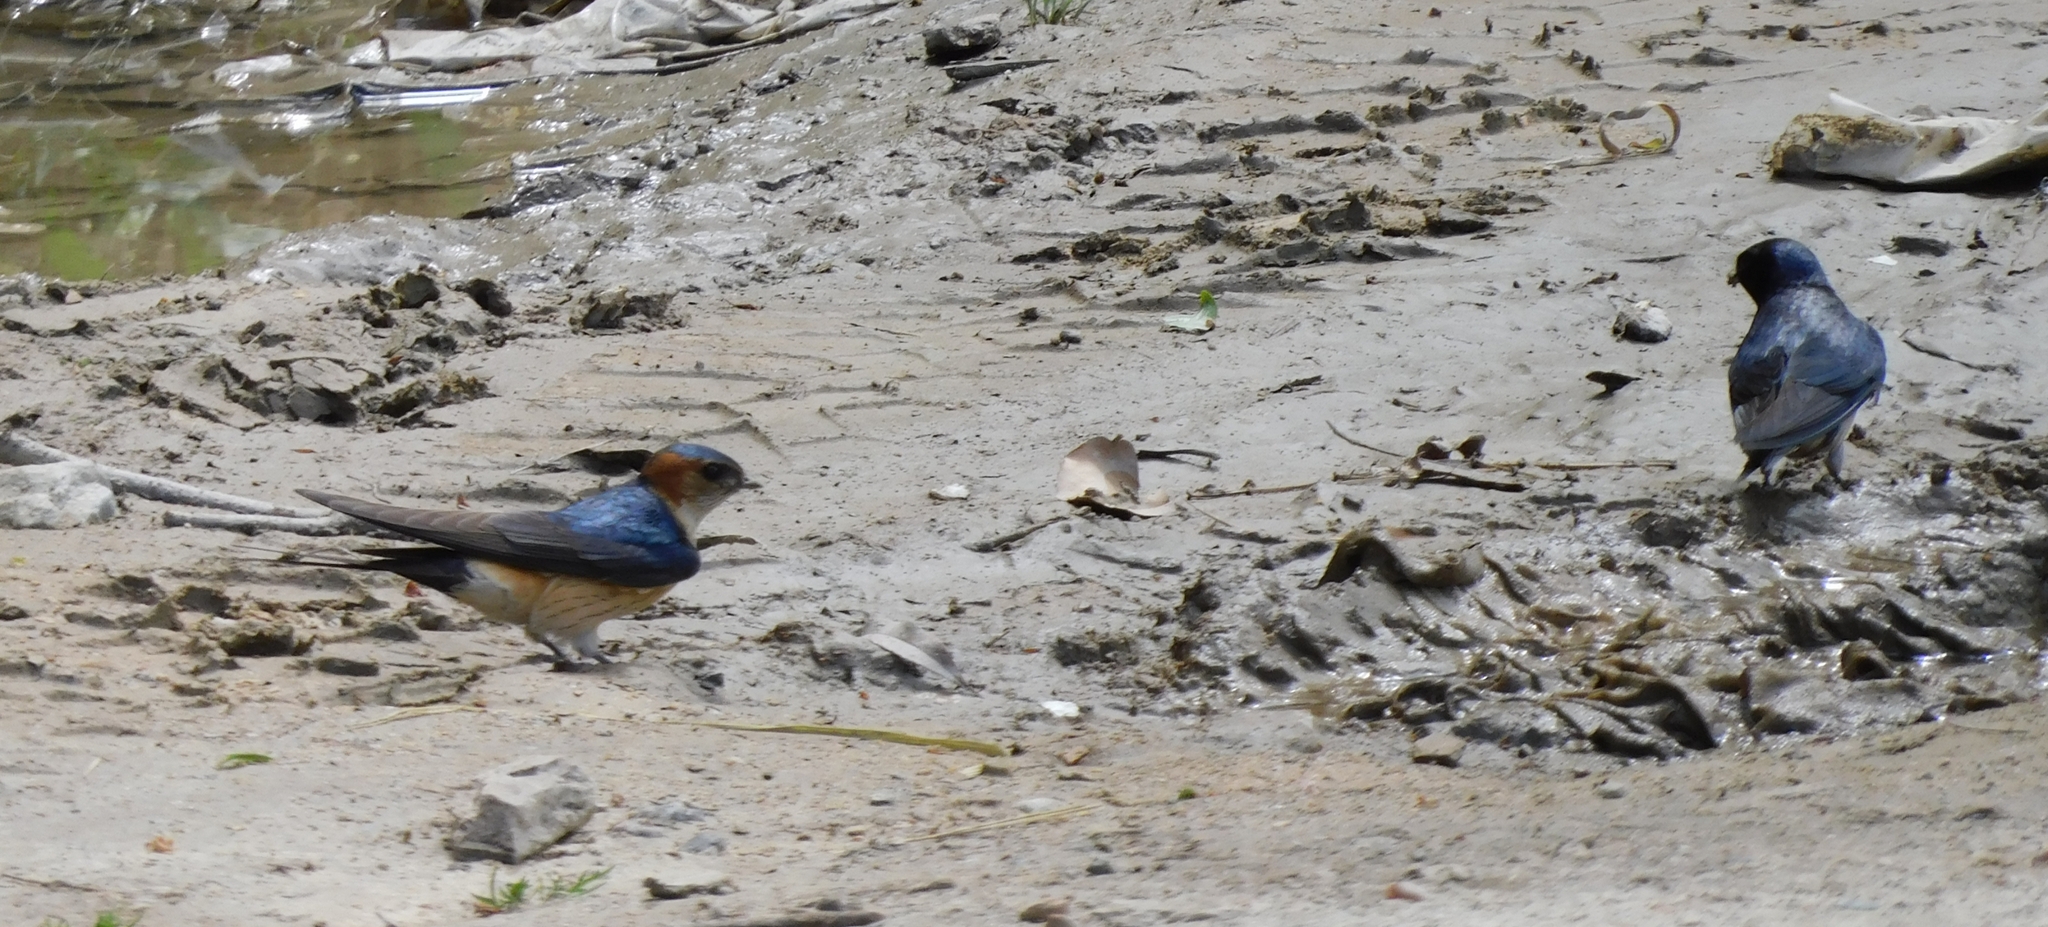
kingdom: Animalia
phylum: Chordata
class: Aves
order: Passeriformes
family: Hirundinidae
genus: Cecropis
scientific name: Cecropis daurica
